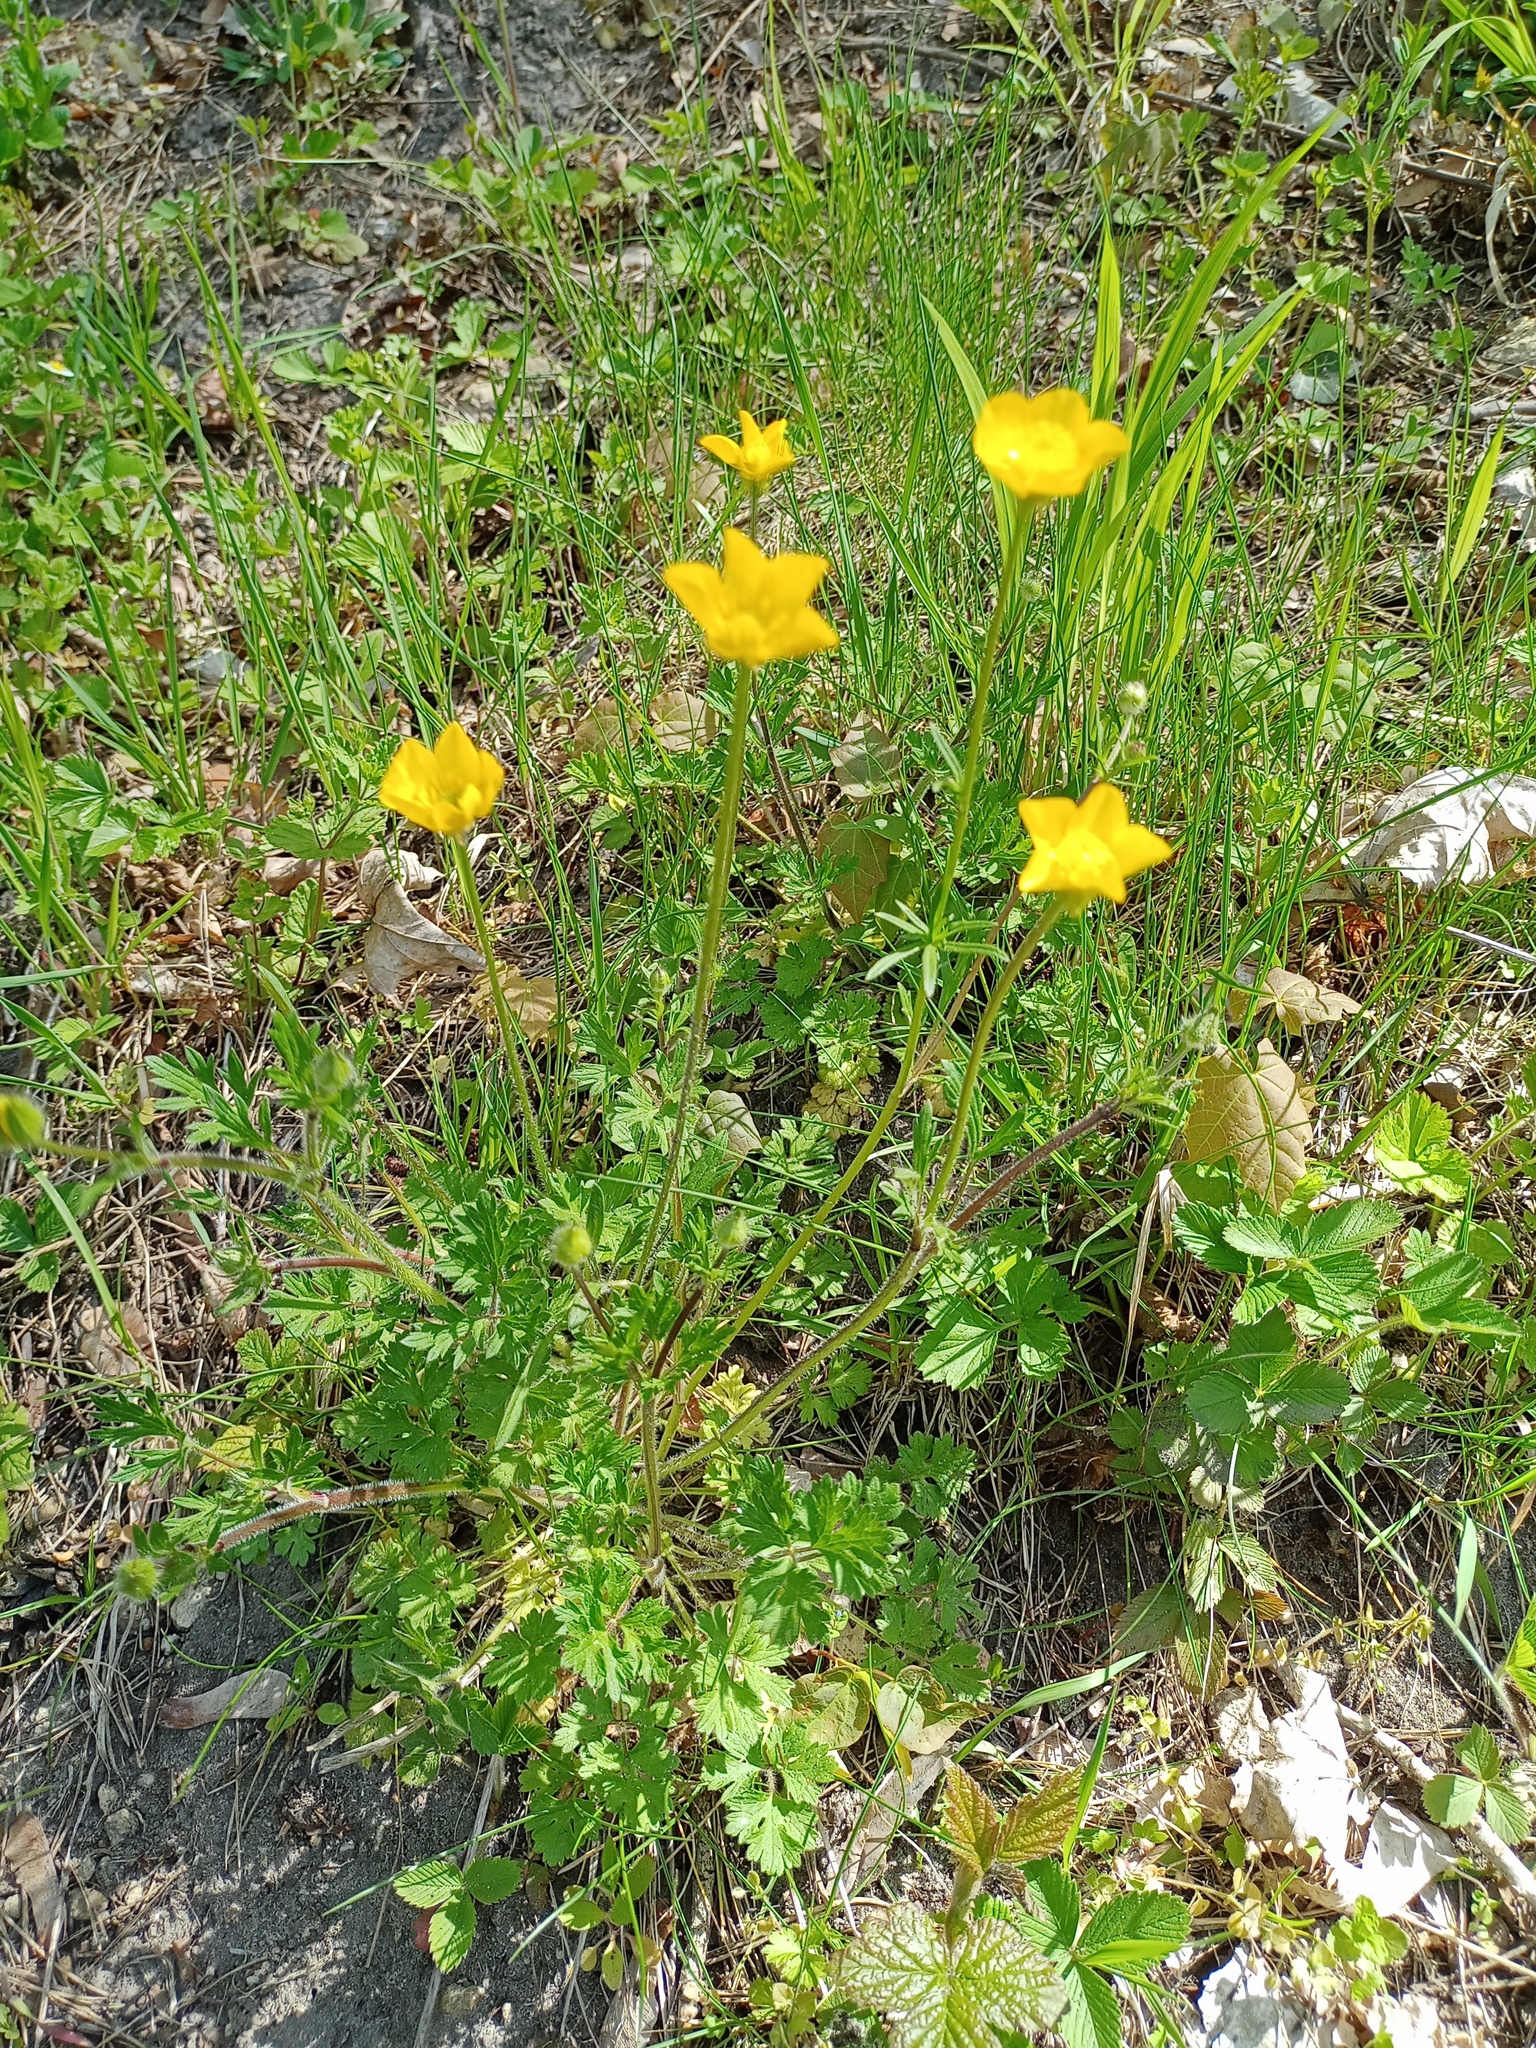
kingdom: Plantae
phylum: Tracheophyta
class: Magnoliopsida
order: Ranunculales
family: Ranunculaceae
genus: Ranunculus
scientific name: Ranunculus bulbosus
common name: Bulbous buttercup
